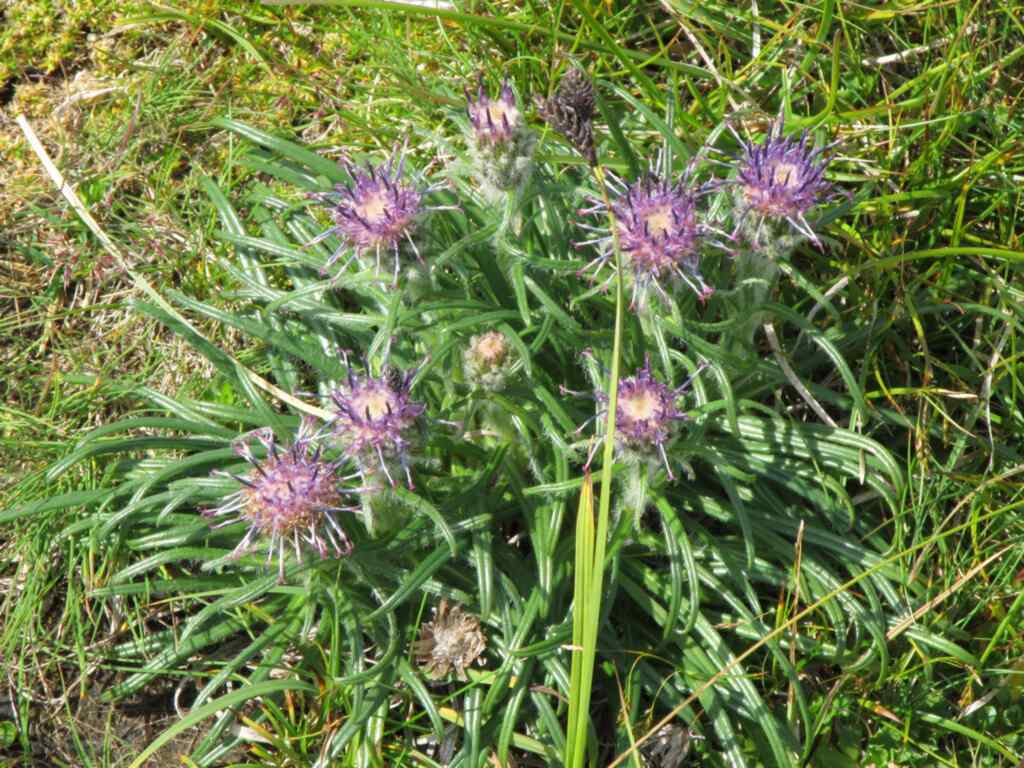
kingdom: Plantae
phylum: Tracheophyta
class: Magnoliopsida
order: Asterales
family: Asteraceae
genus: Saussurea
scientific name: Saussurea pygmaea
